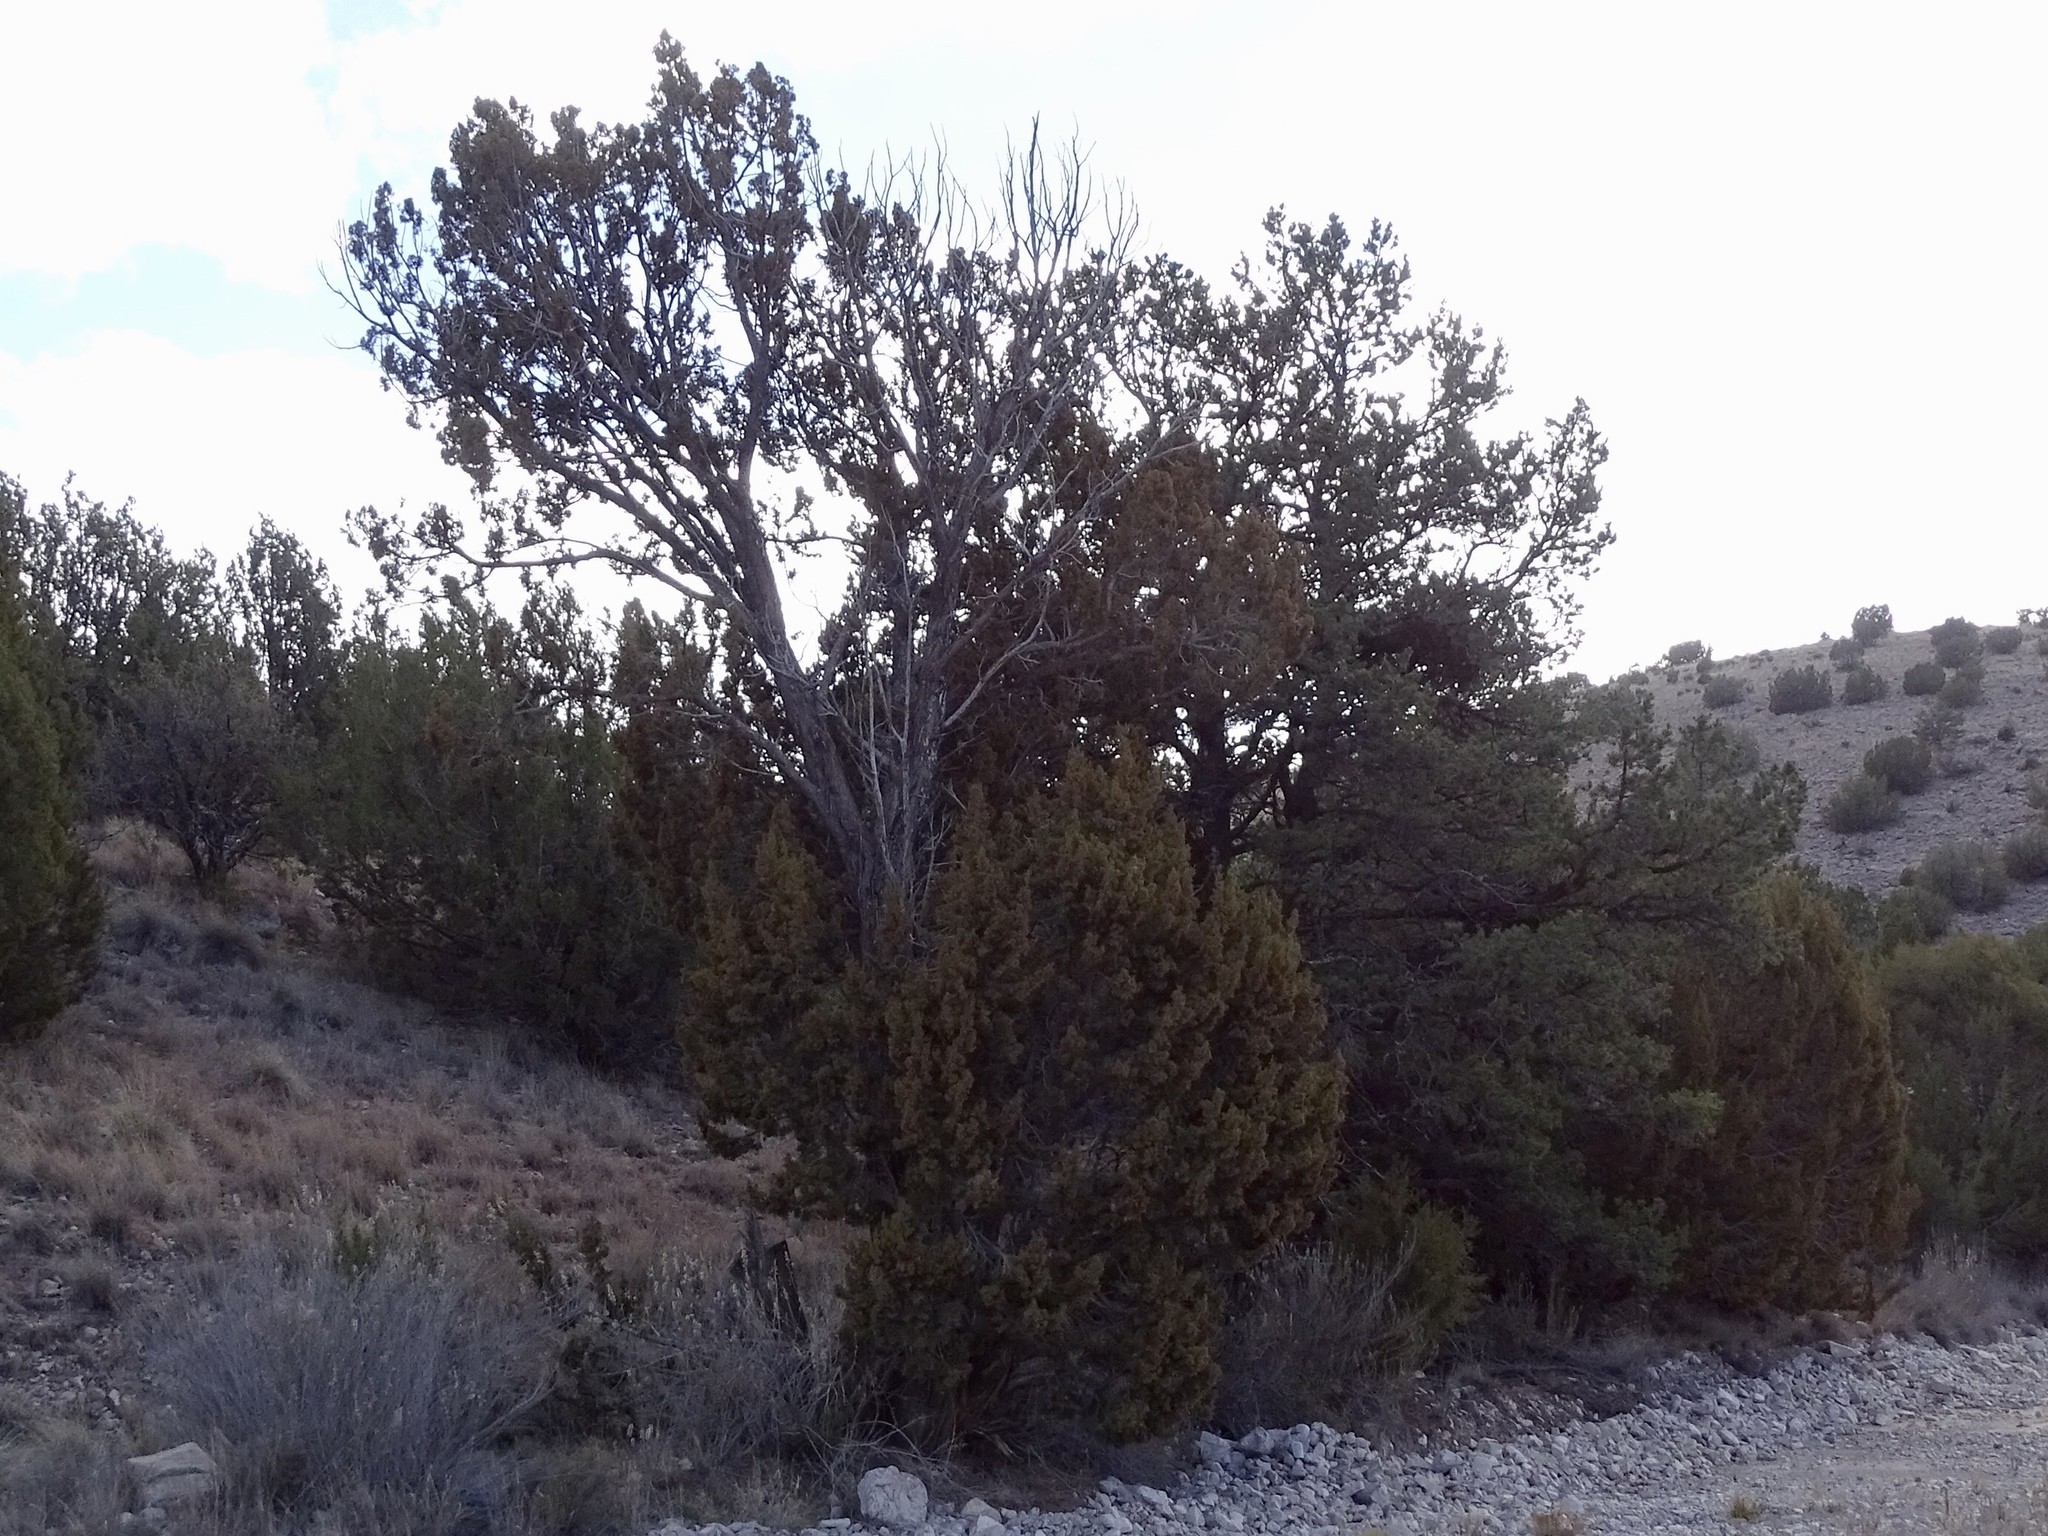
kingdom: Plantae
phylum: Tracheophyta
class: Pinopsida
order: Pinales
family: Cupressaceae
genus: Juniperus
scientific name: Juniperus monosperma
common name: One-seed juniper
